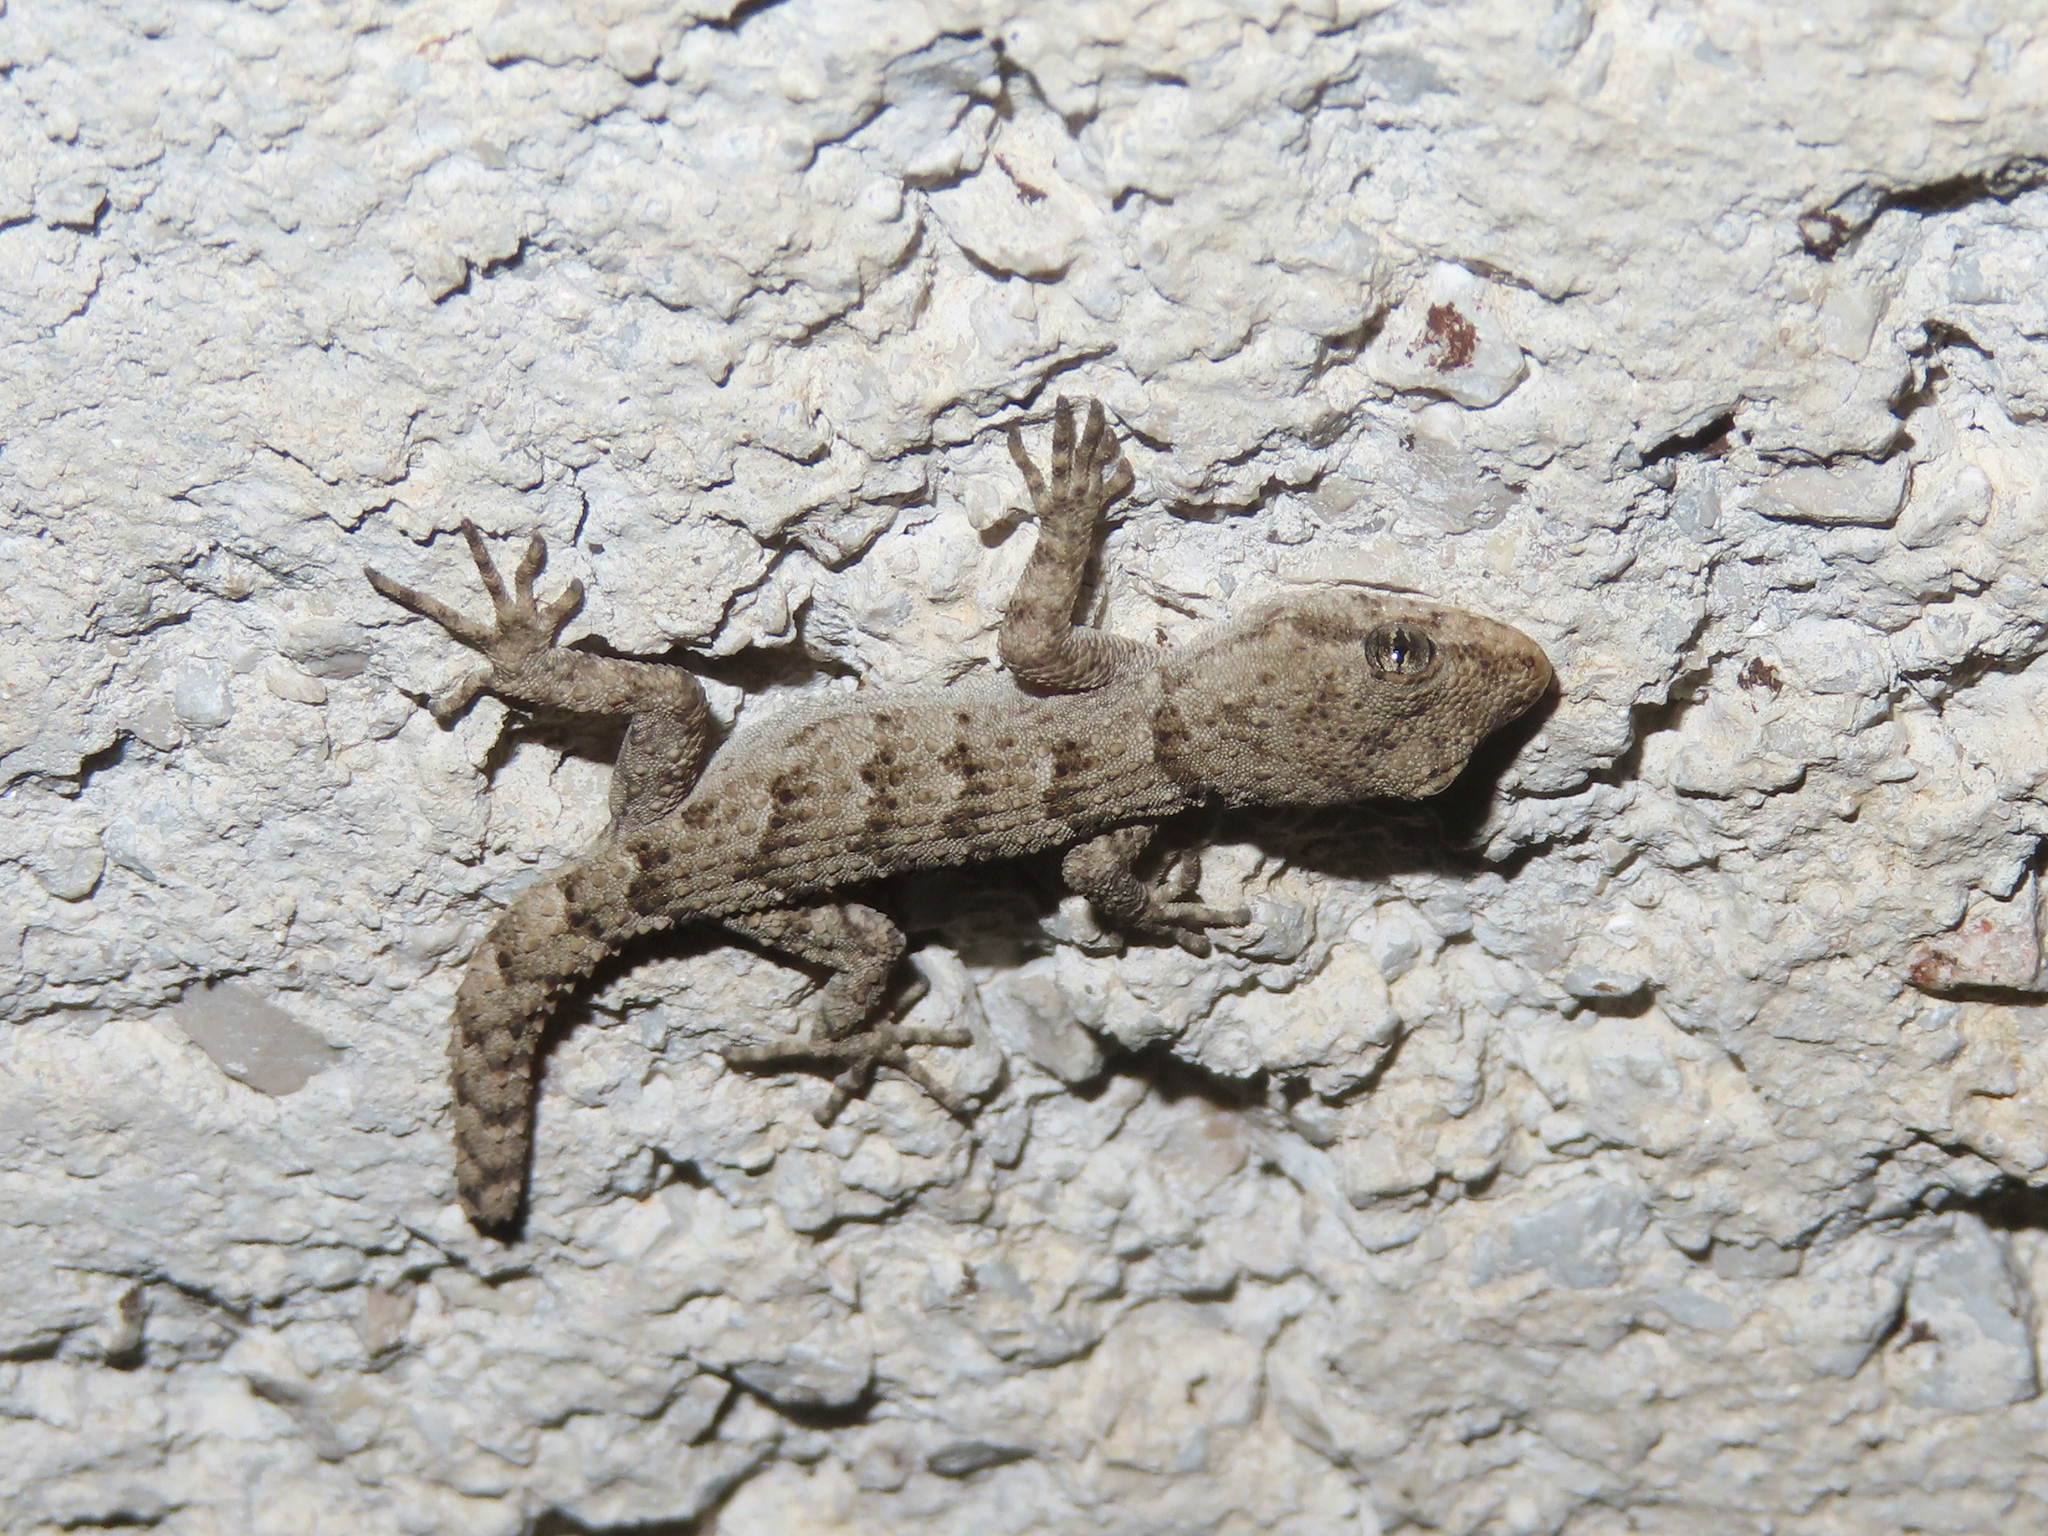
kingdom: Animalia
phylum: Chordata
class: Squamata
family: Gekkonidae
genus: Mediodactylus
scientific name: Mediodactylus kotschyi
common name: Kotschy's gecko
